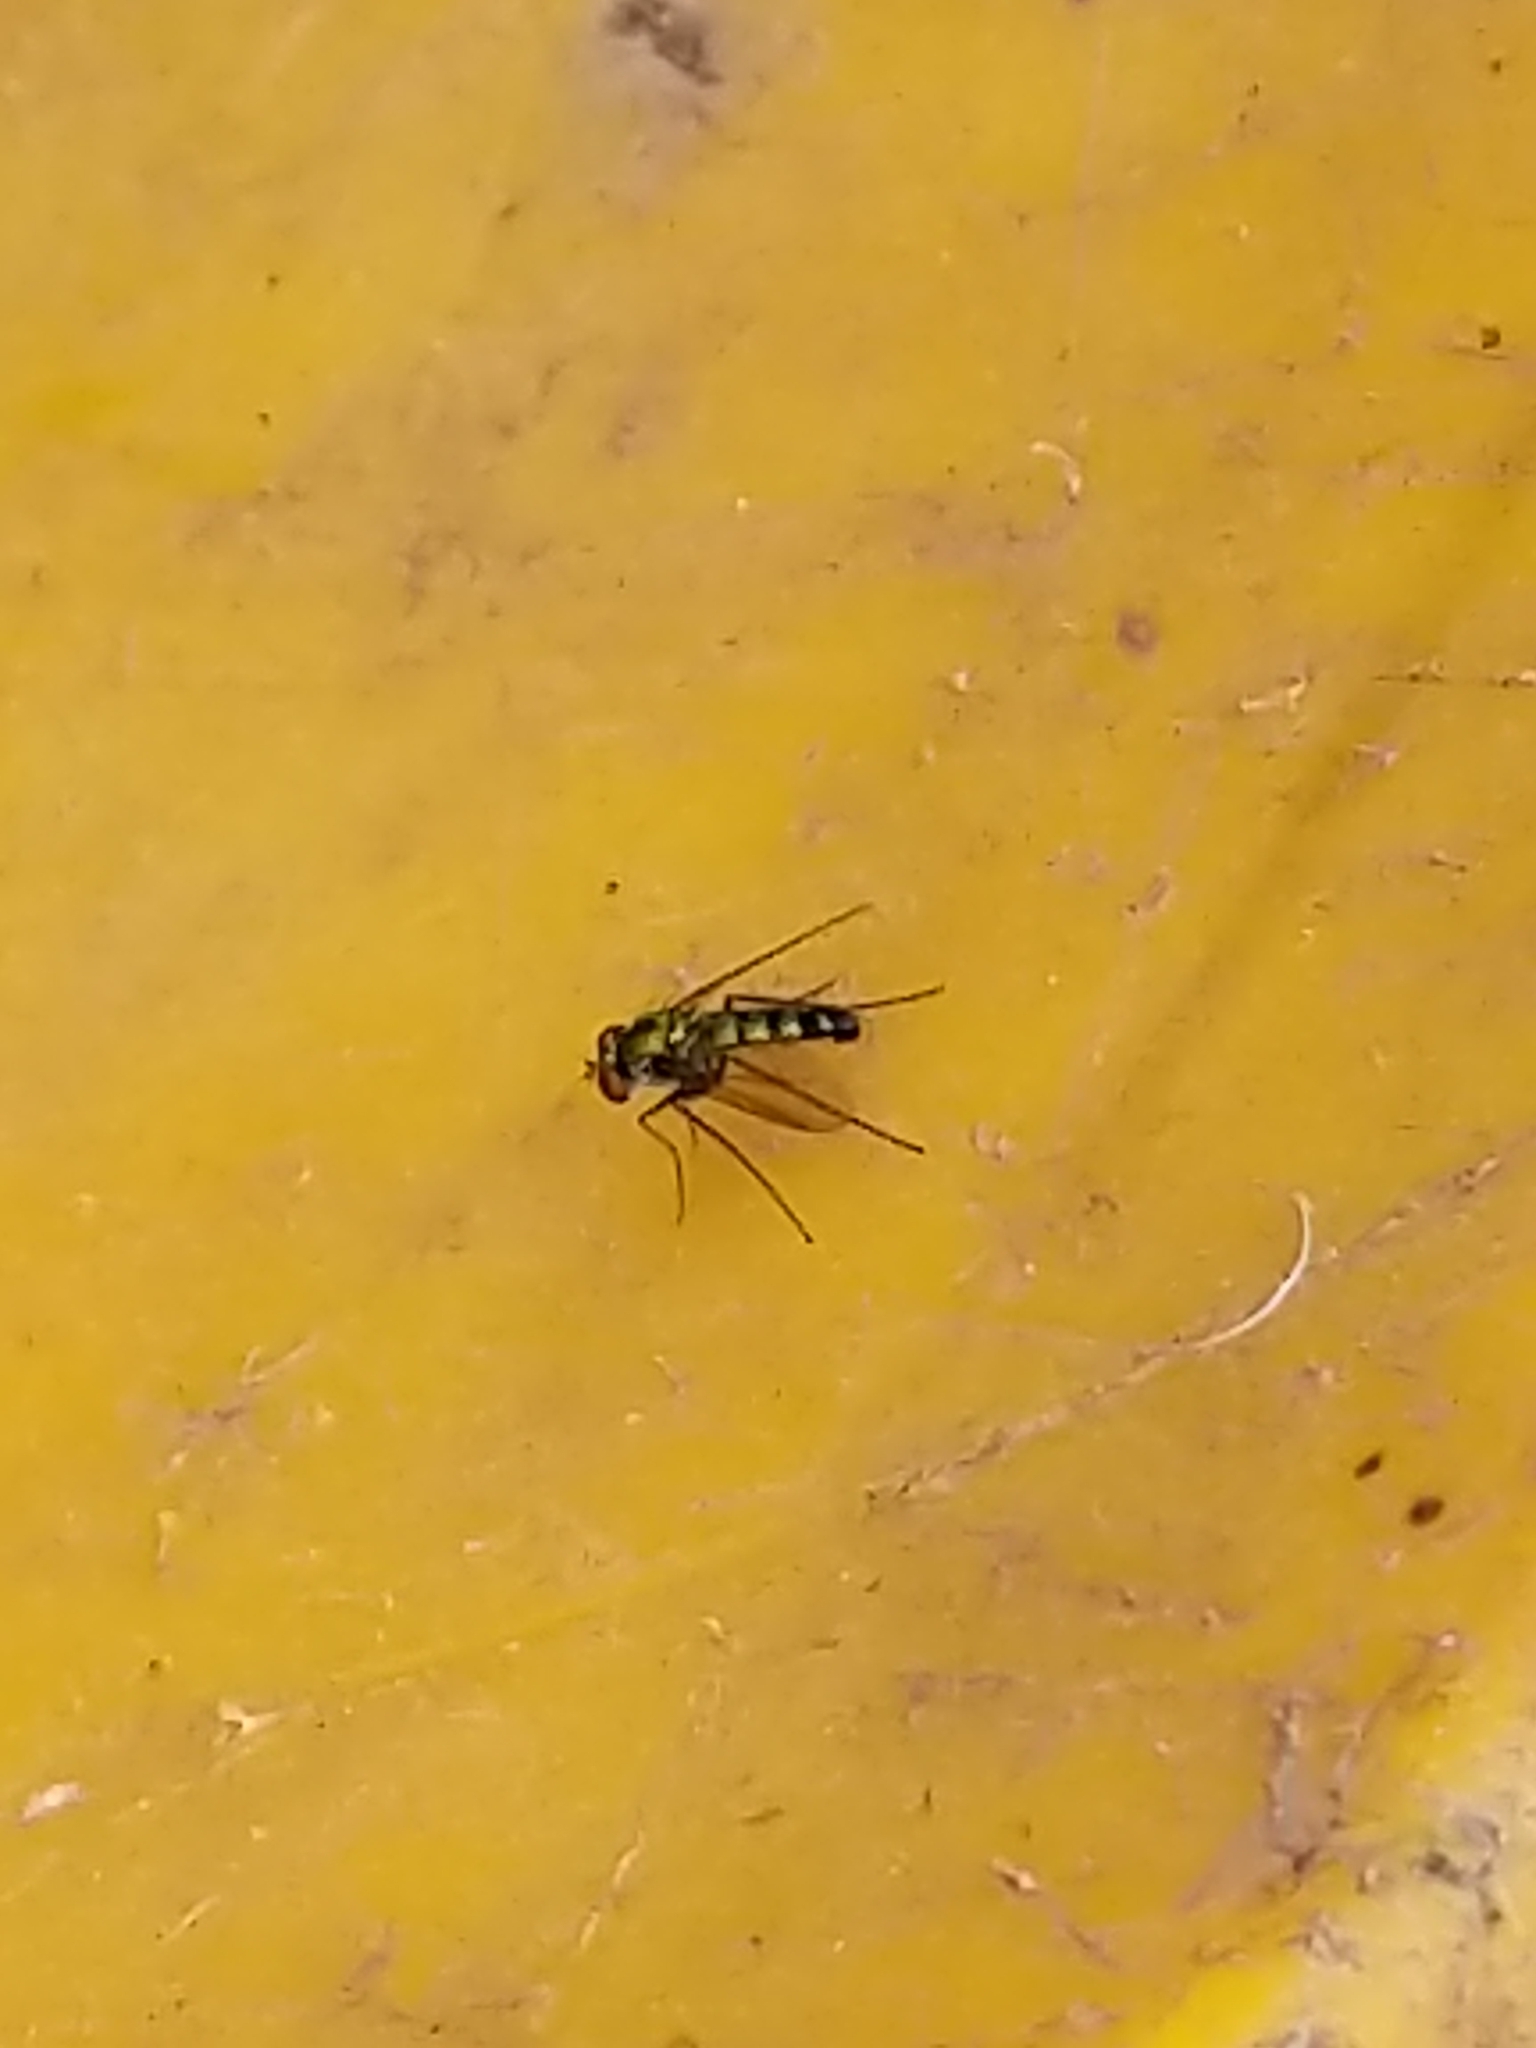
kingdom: Animalia
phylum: Arthropoda
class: Insecta
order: Diptera
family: Dolichopodidae
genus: Condylostylus
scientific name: Condylostylus longicornis
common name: Long-legged fly
